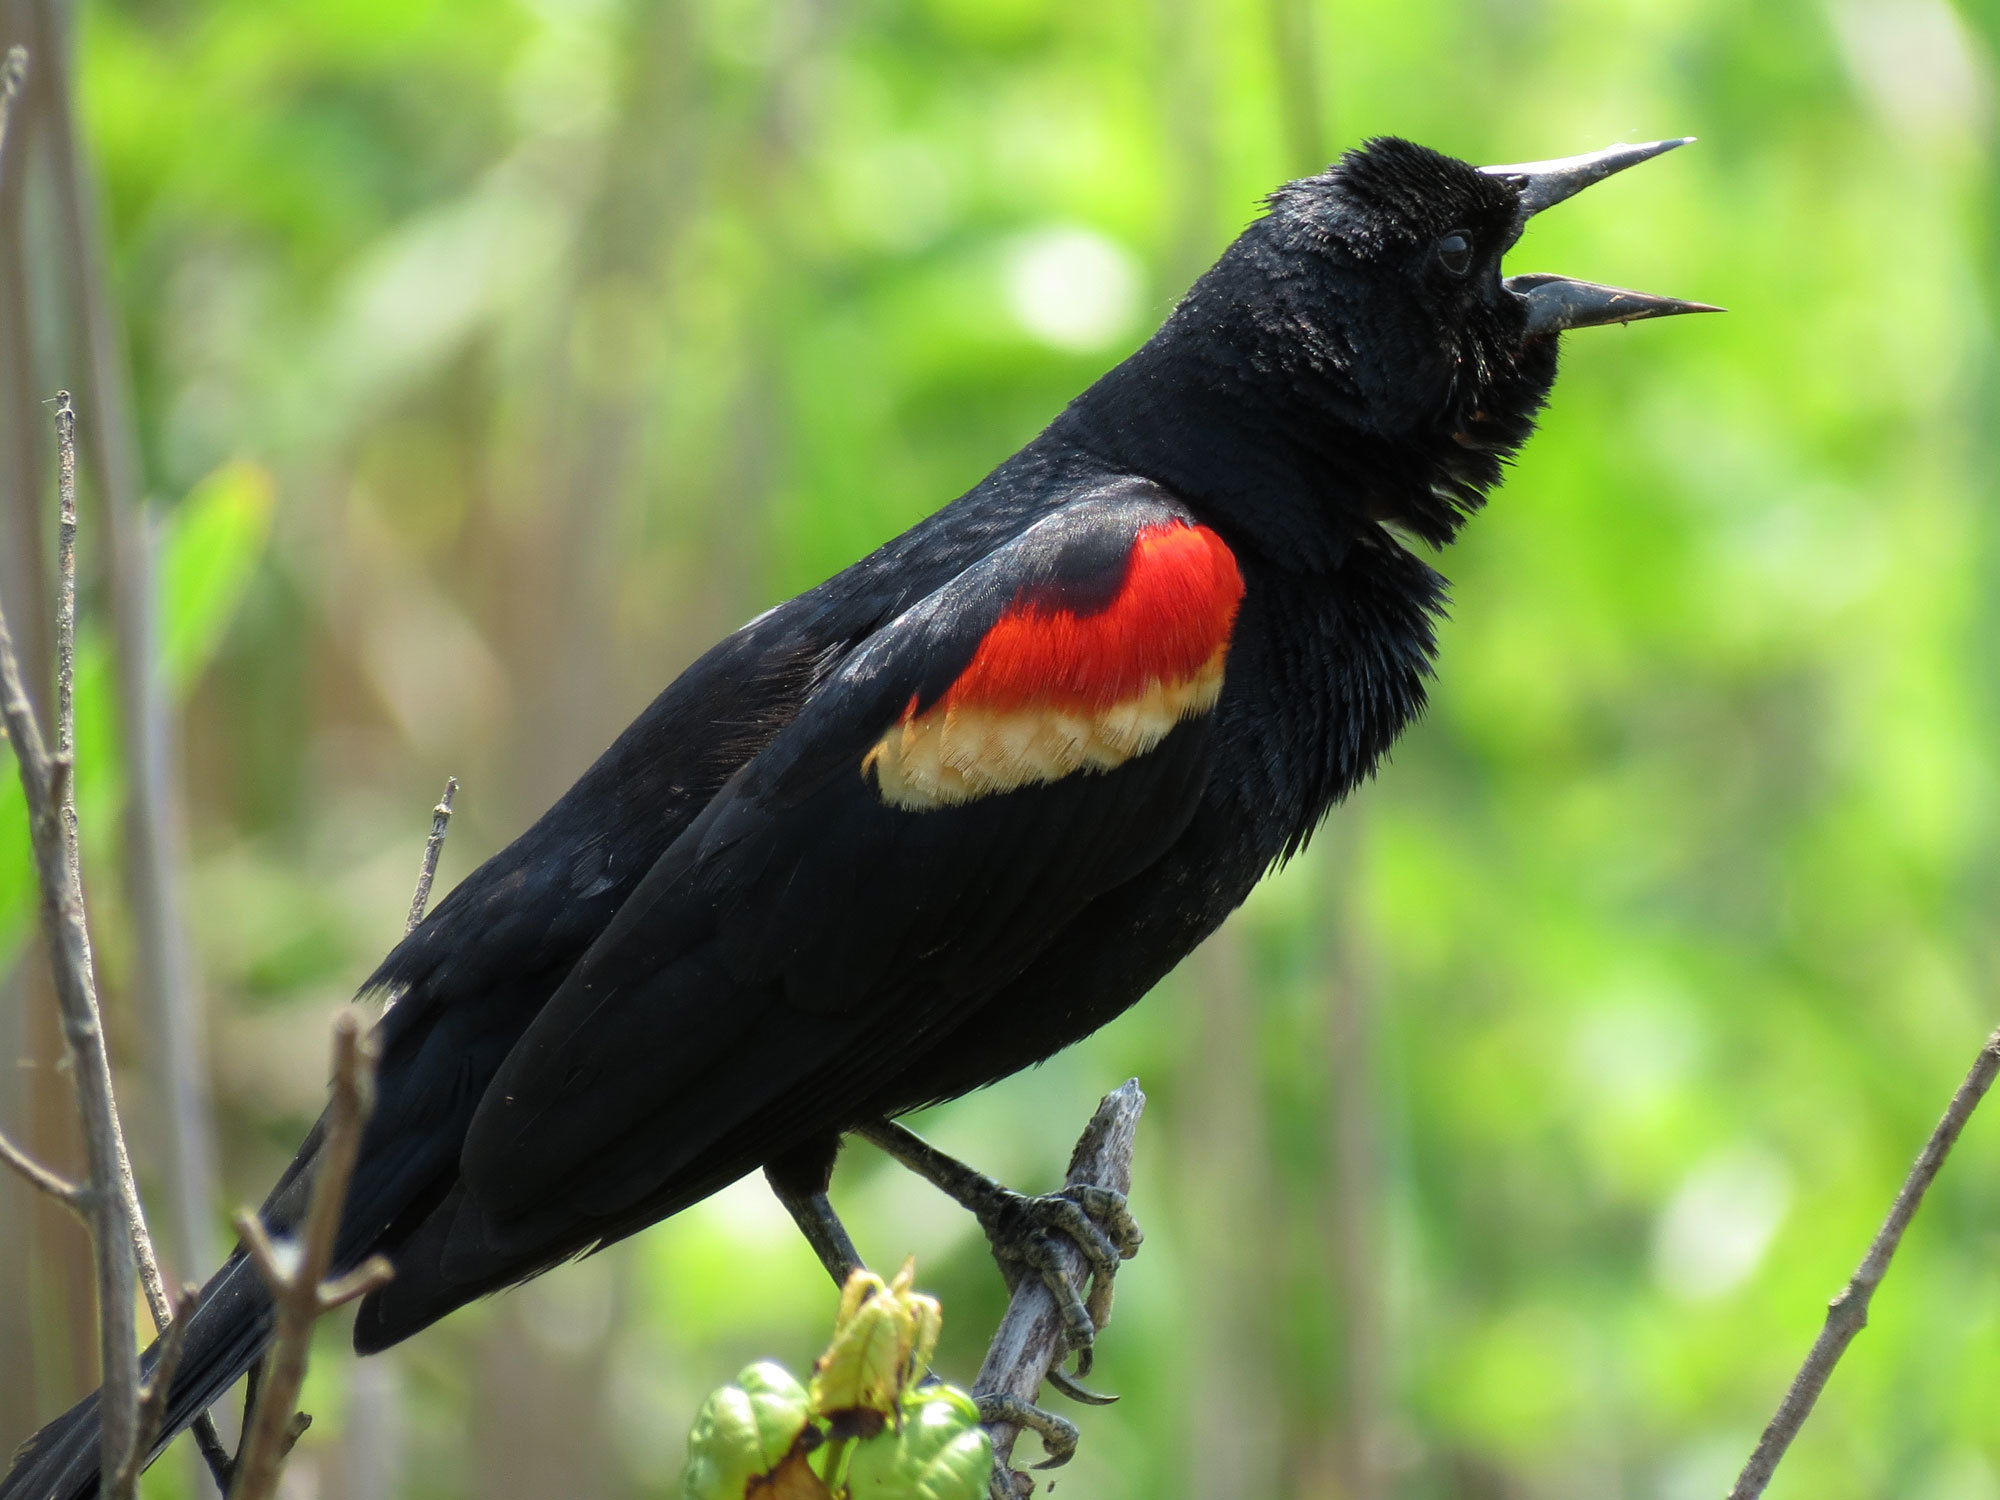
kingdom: Animalia
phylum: Chordata
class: Aves
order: Passeriformes
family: Icteridae
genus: Agelaius
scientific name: Agelaius phoeniceus
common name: Red-winged blackbird
